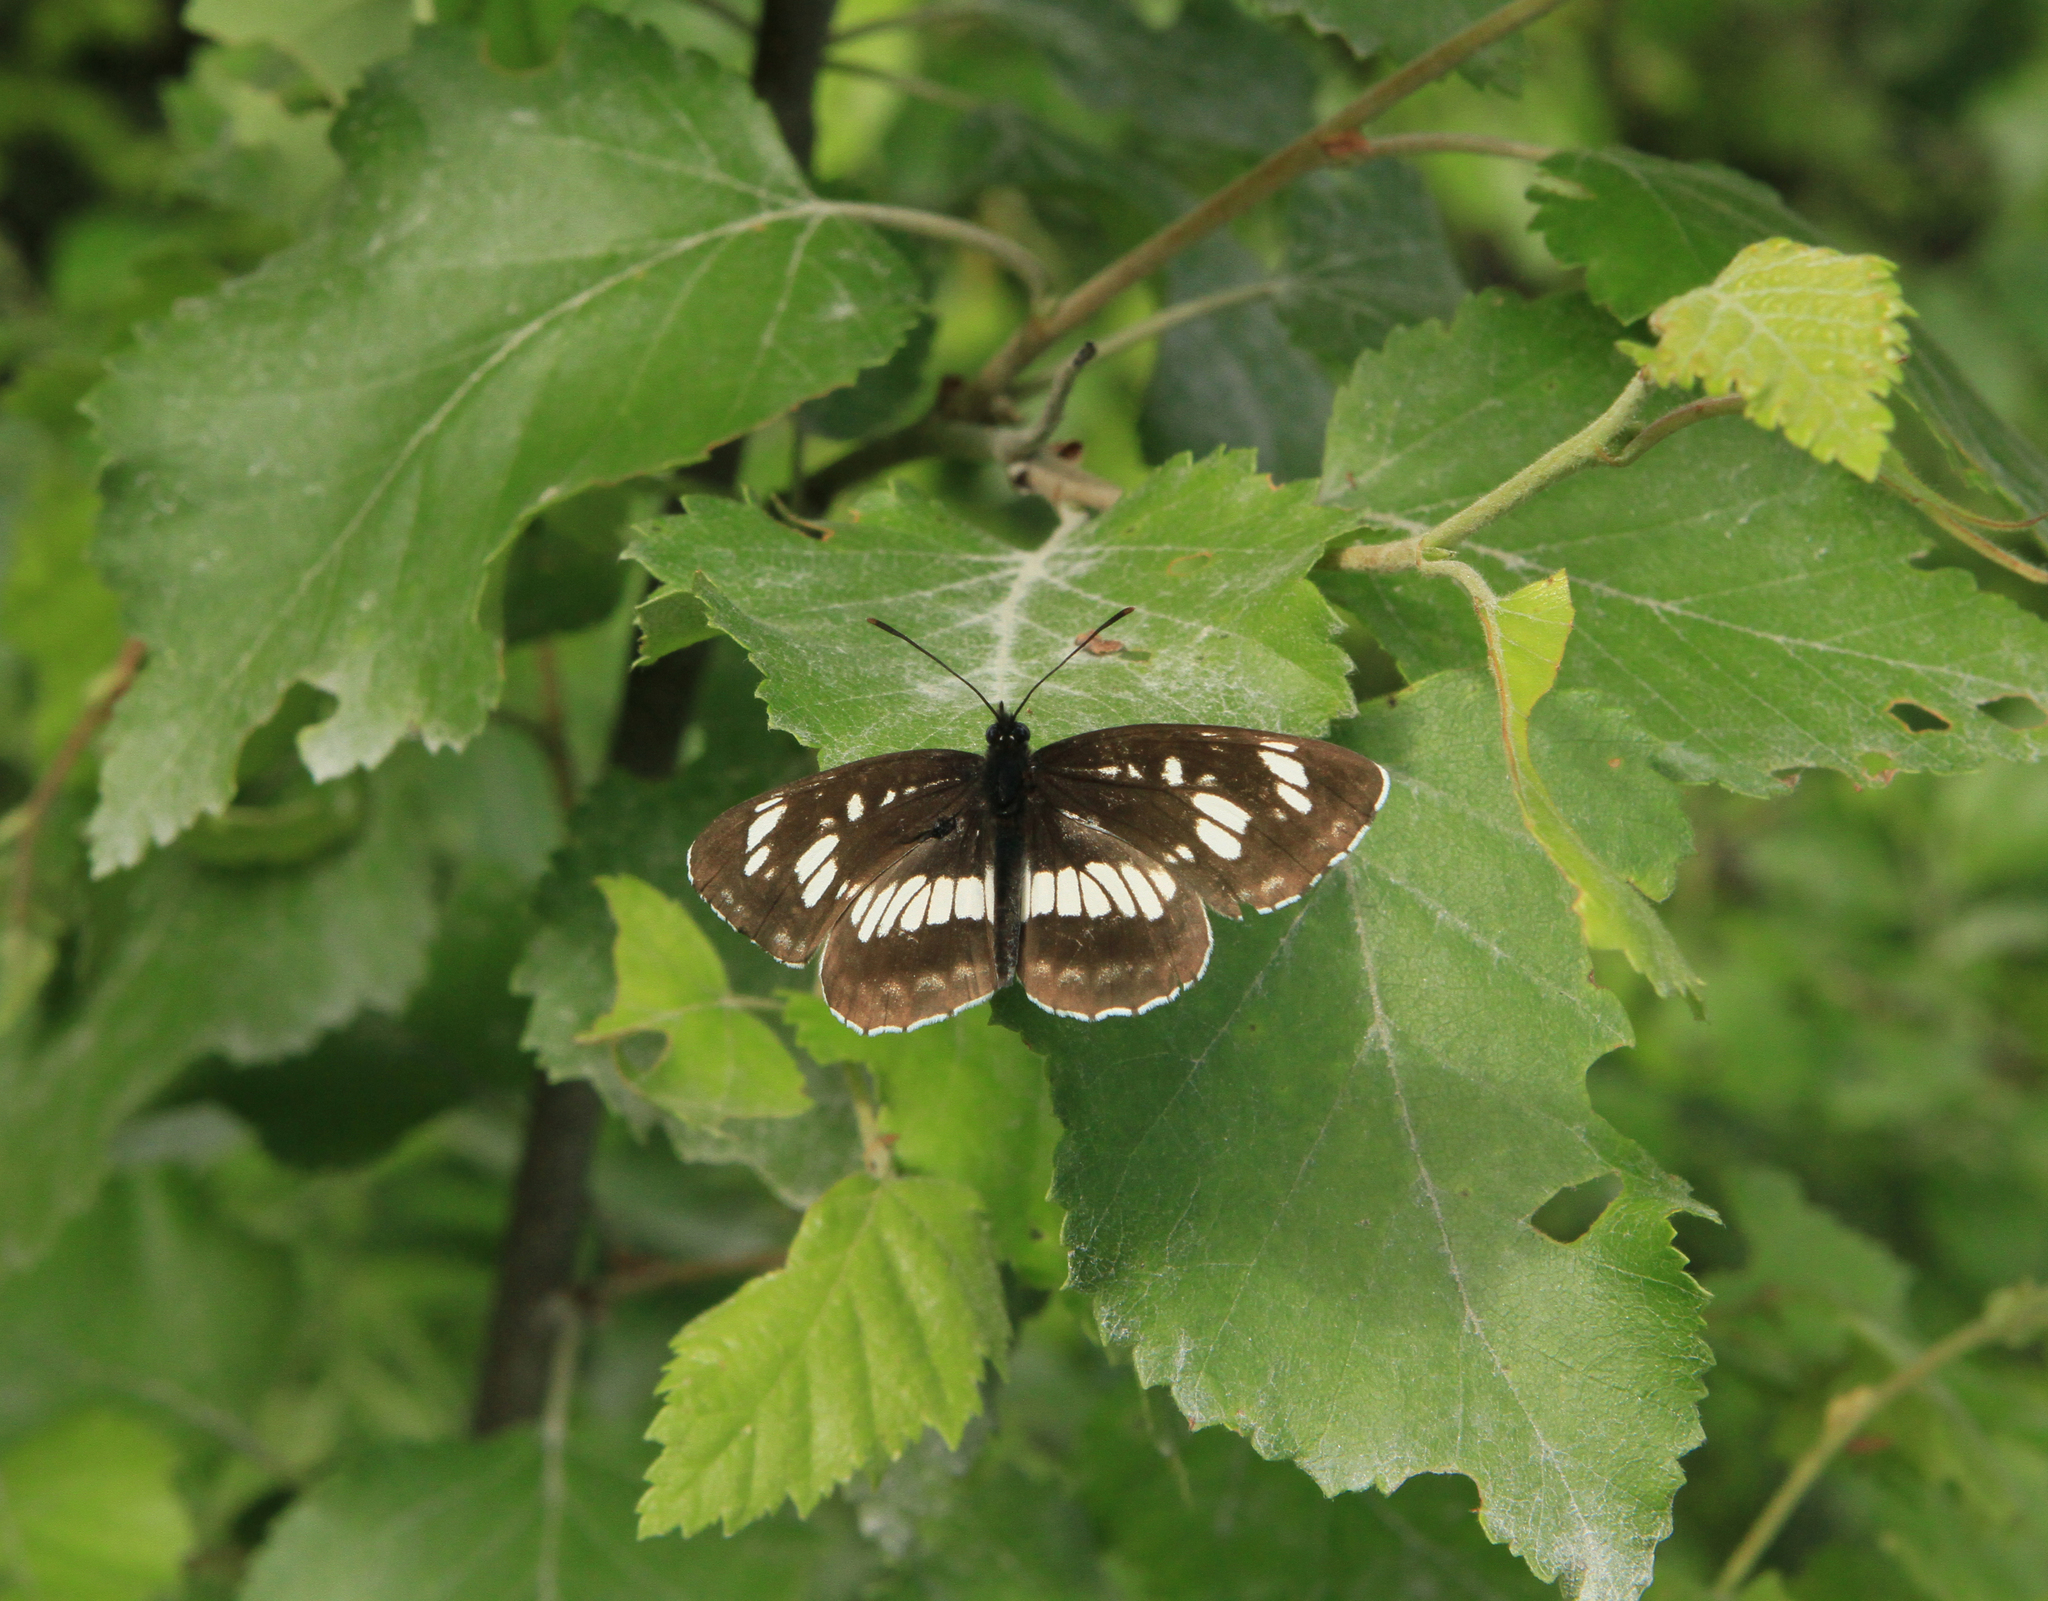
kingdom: Animalia
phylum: Arthropoda
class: Insecta
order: Lepidoptera
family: Nymphalidae
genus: Neptis
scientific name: Neptis rivularis
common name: Hungarian glider
